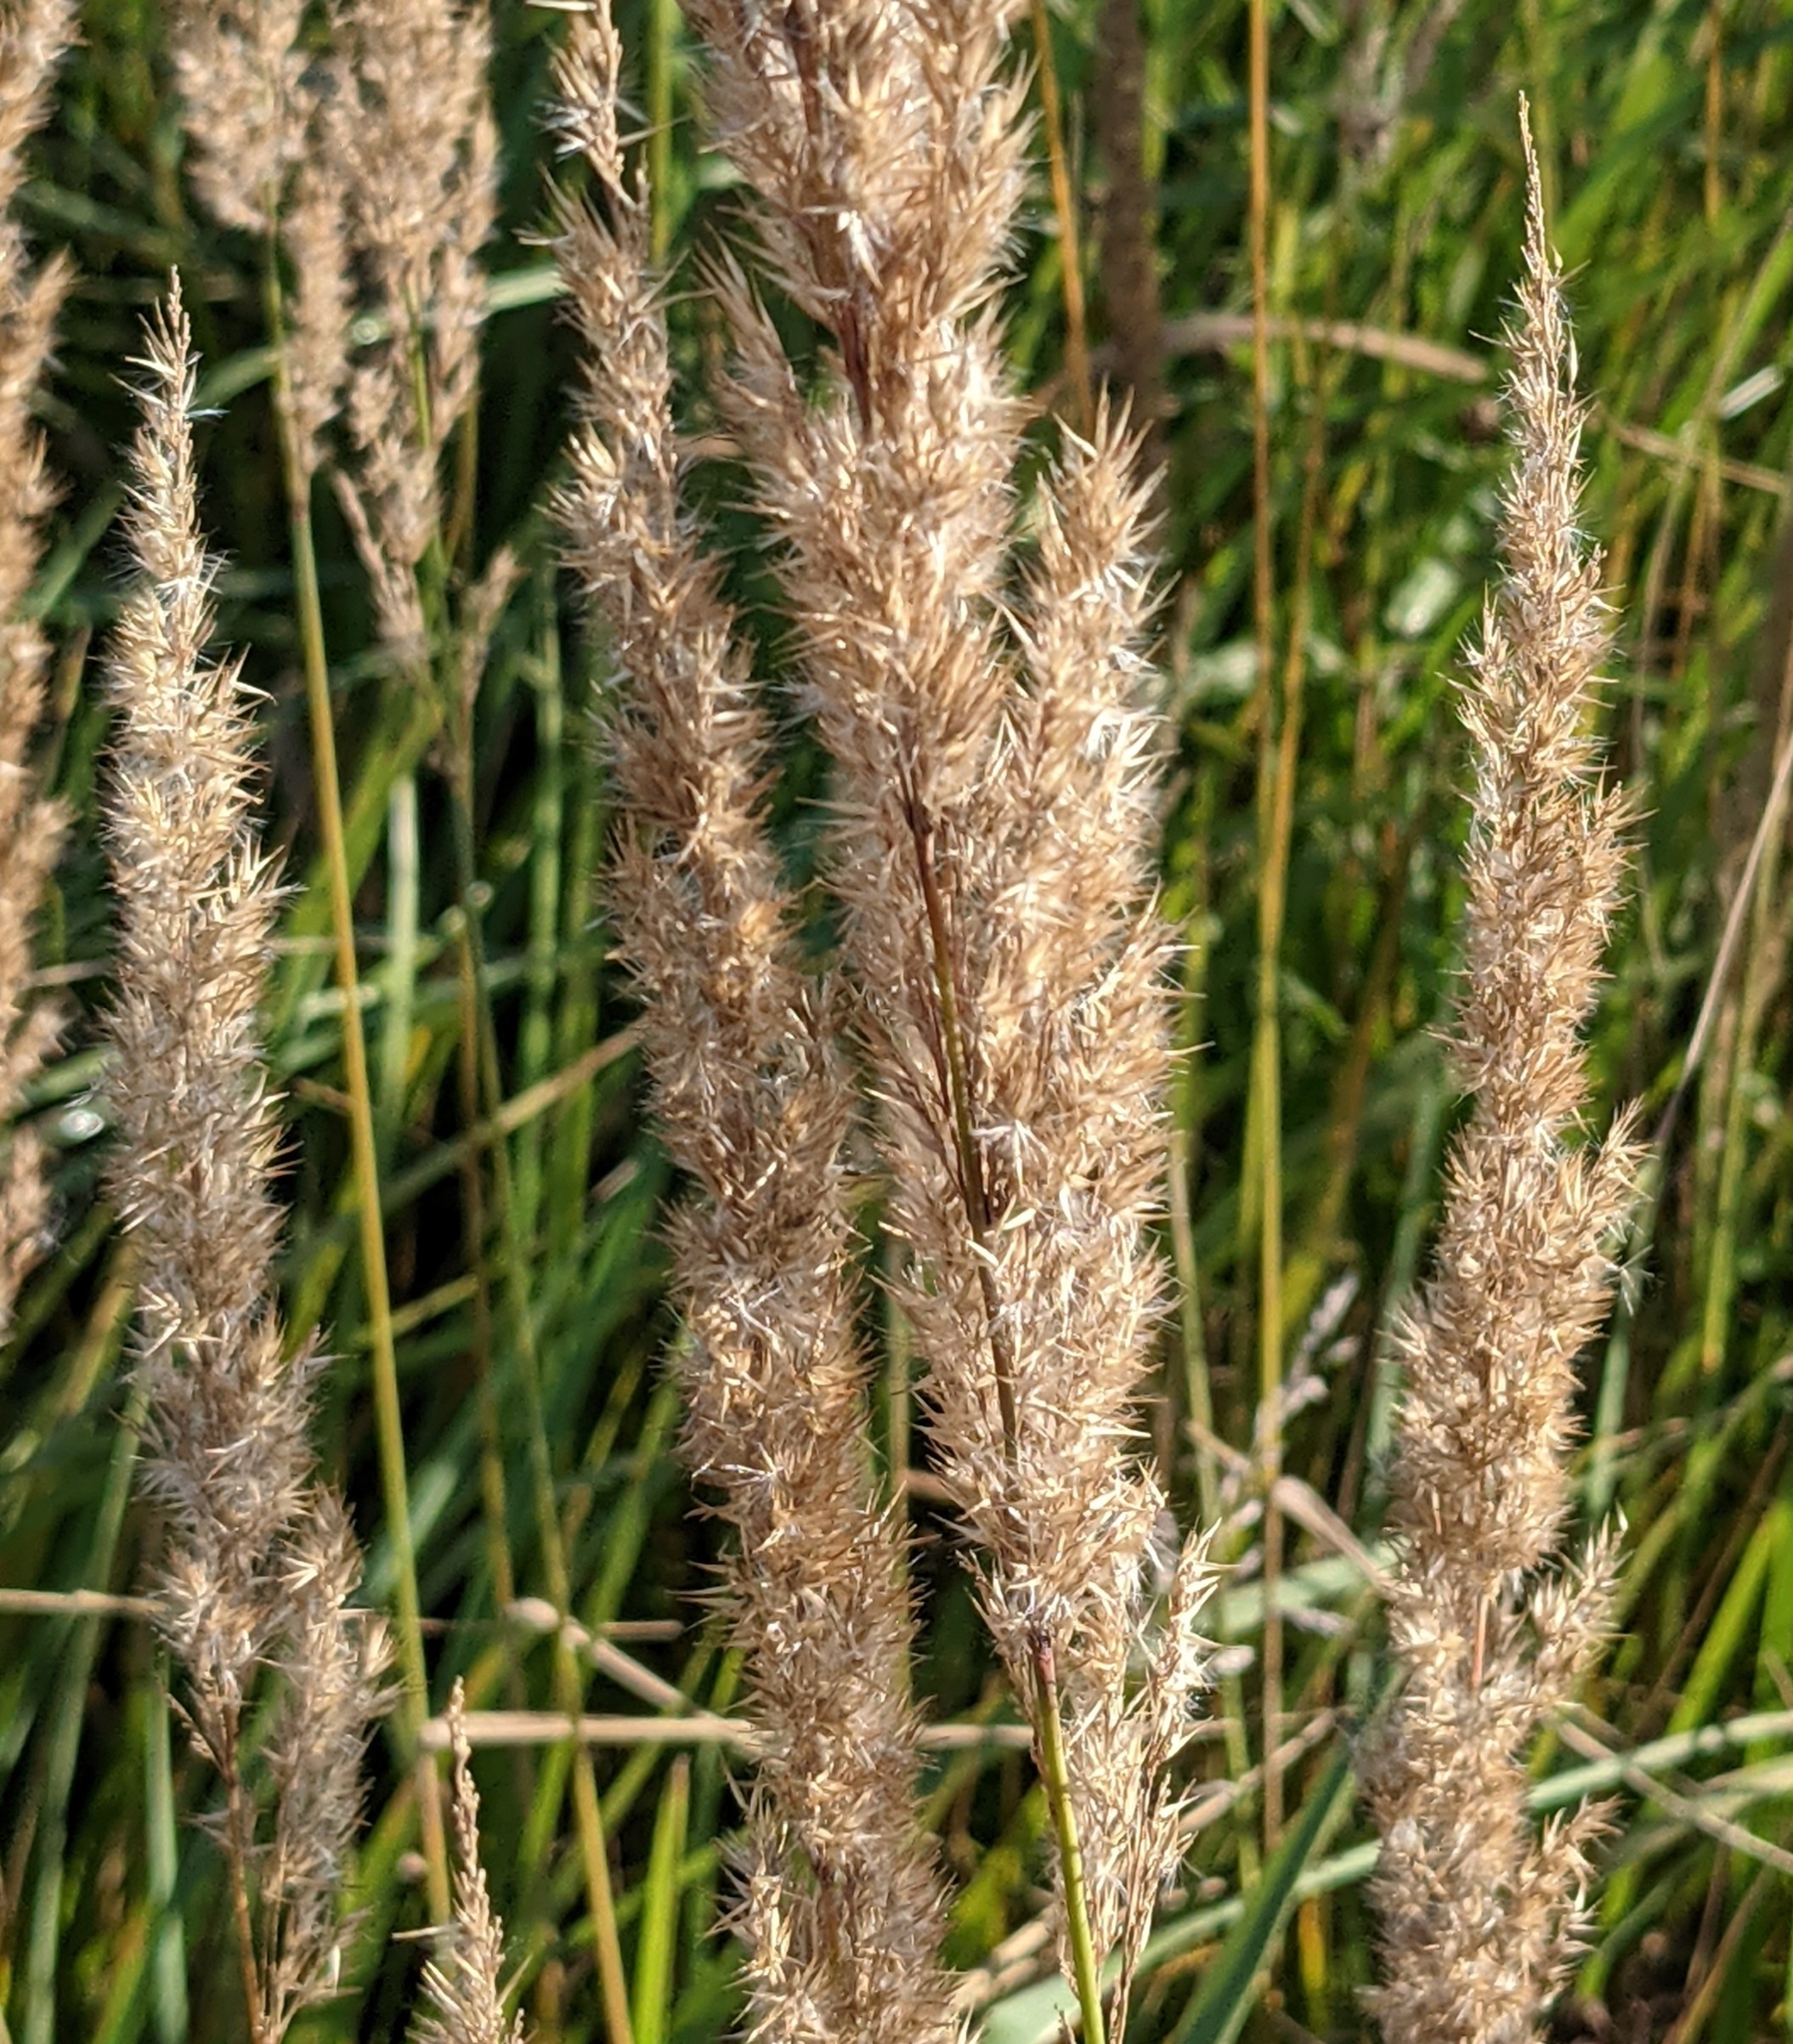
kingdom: Plantae
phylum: Tracheophyta
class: Liliopsida
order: Poales
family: Poaceae
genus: Calamagrostis
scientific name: Calamagrostis epigejos
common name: Wood small-reed
